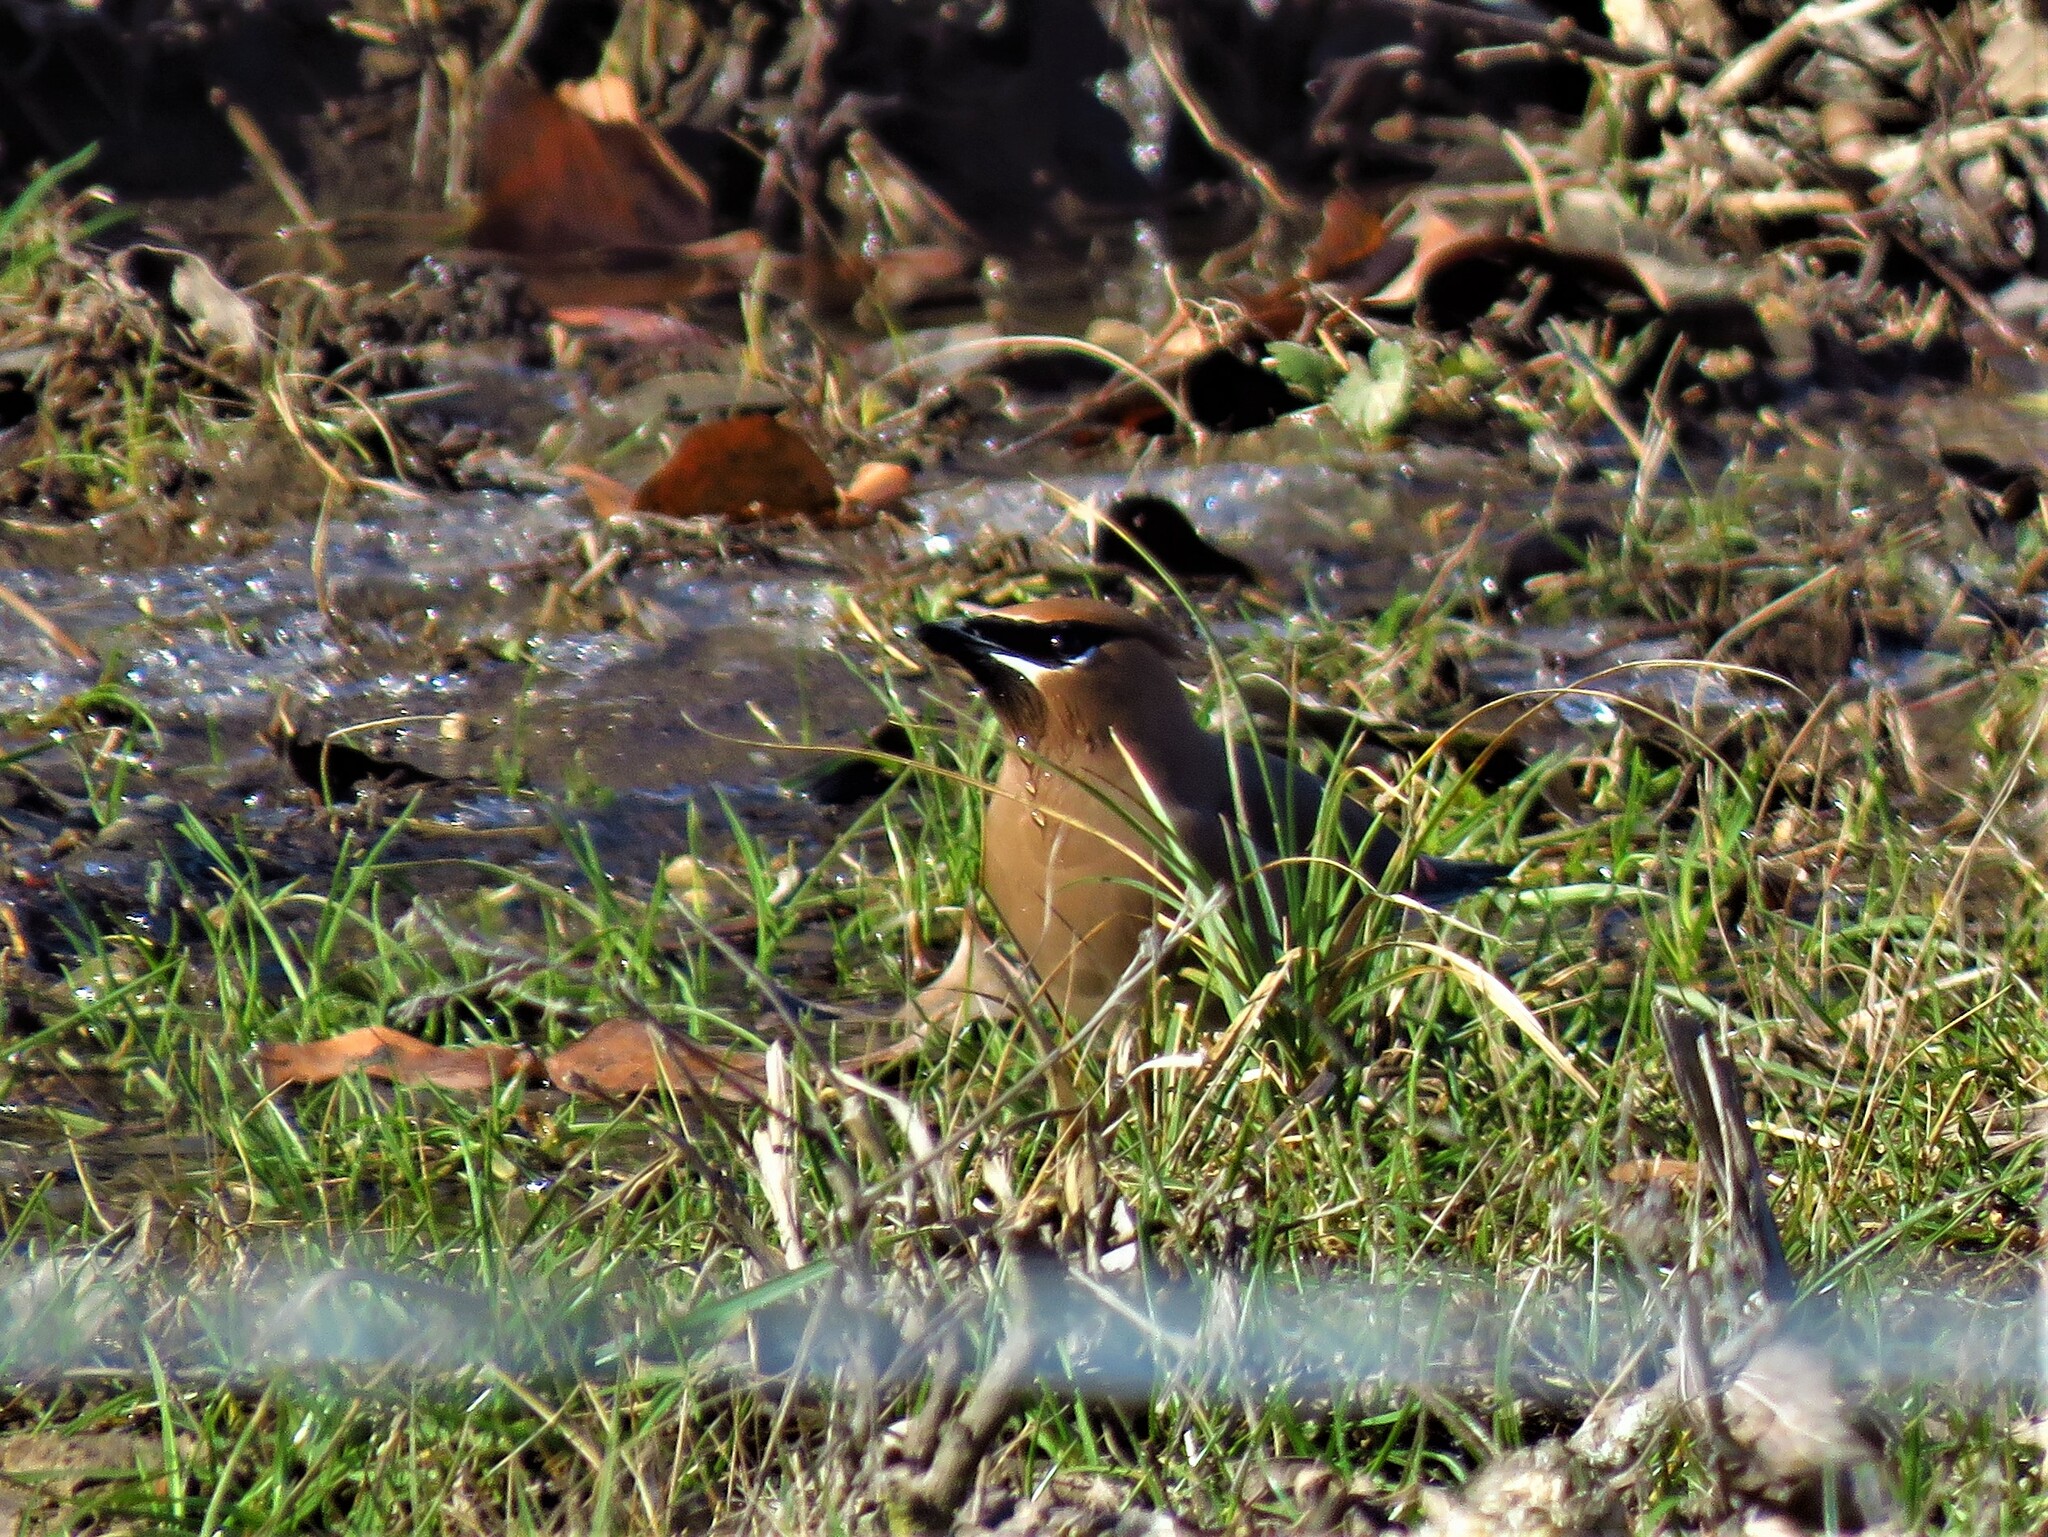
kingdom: Animalia
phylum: Chordata
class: Aves
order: Passeriformes
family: Bombycillidae
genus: Bombycilla
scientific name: Bombycilla cedrorum
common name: Cedar waxwing
